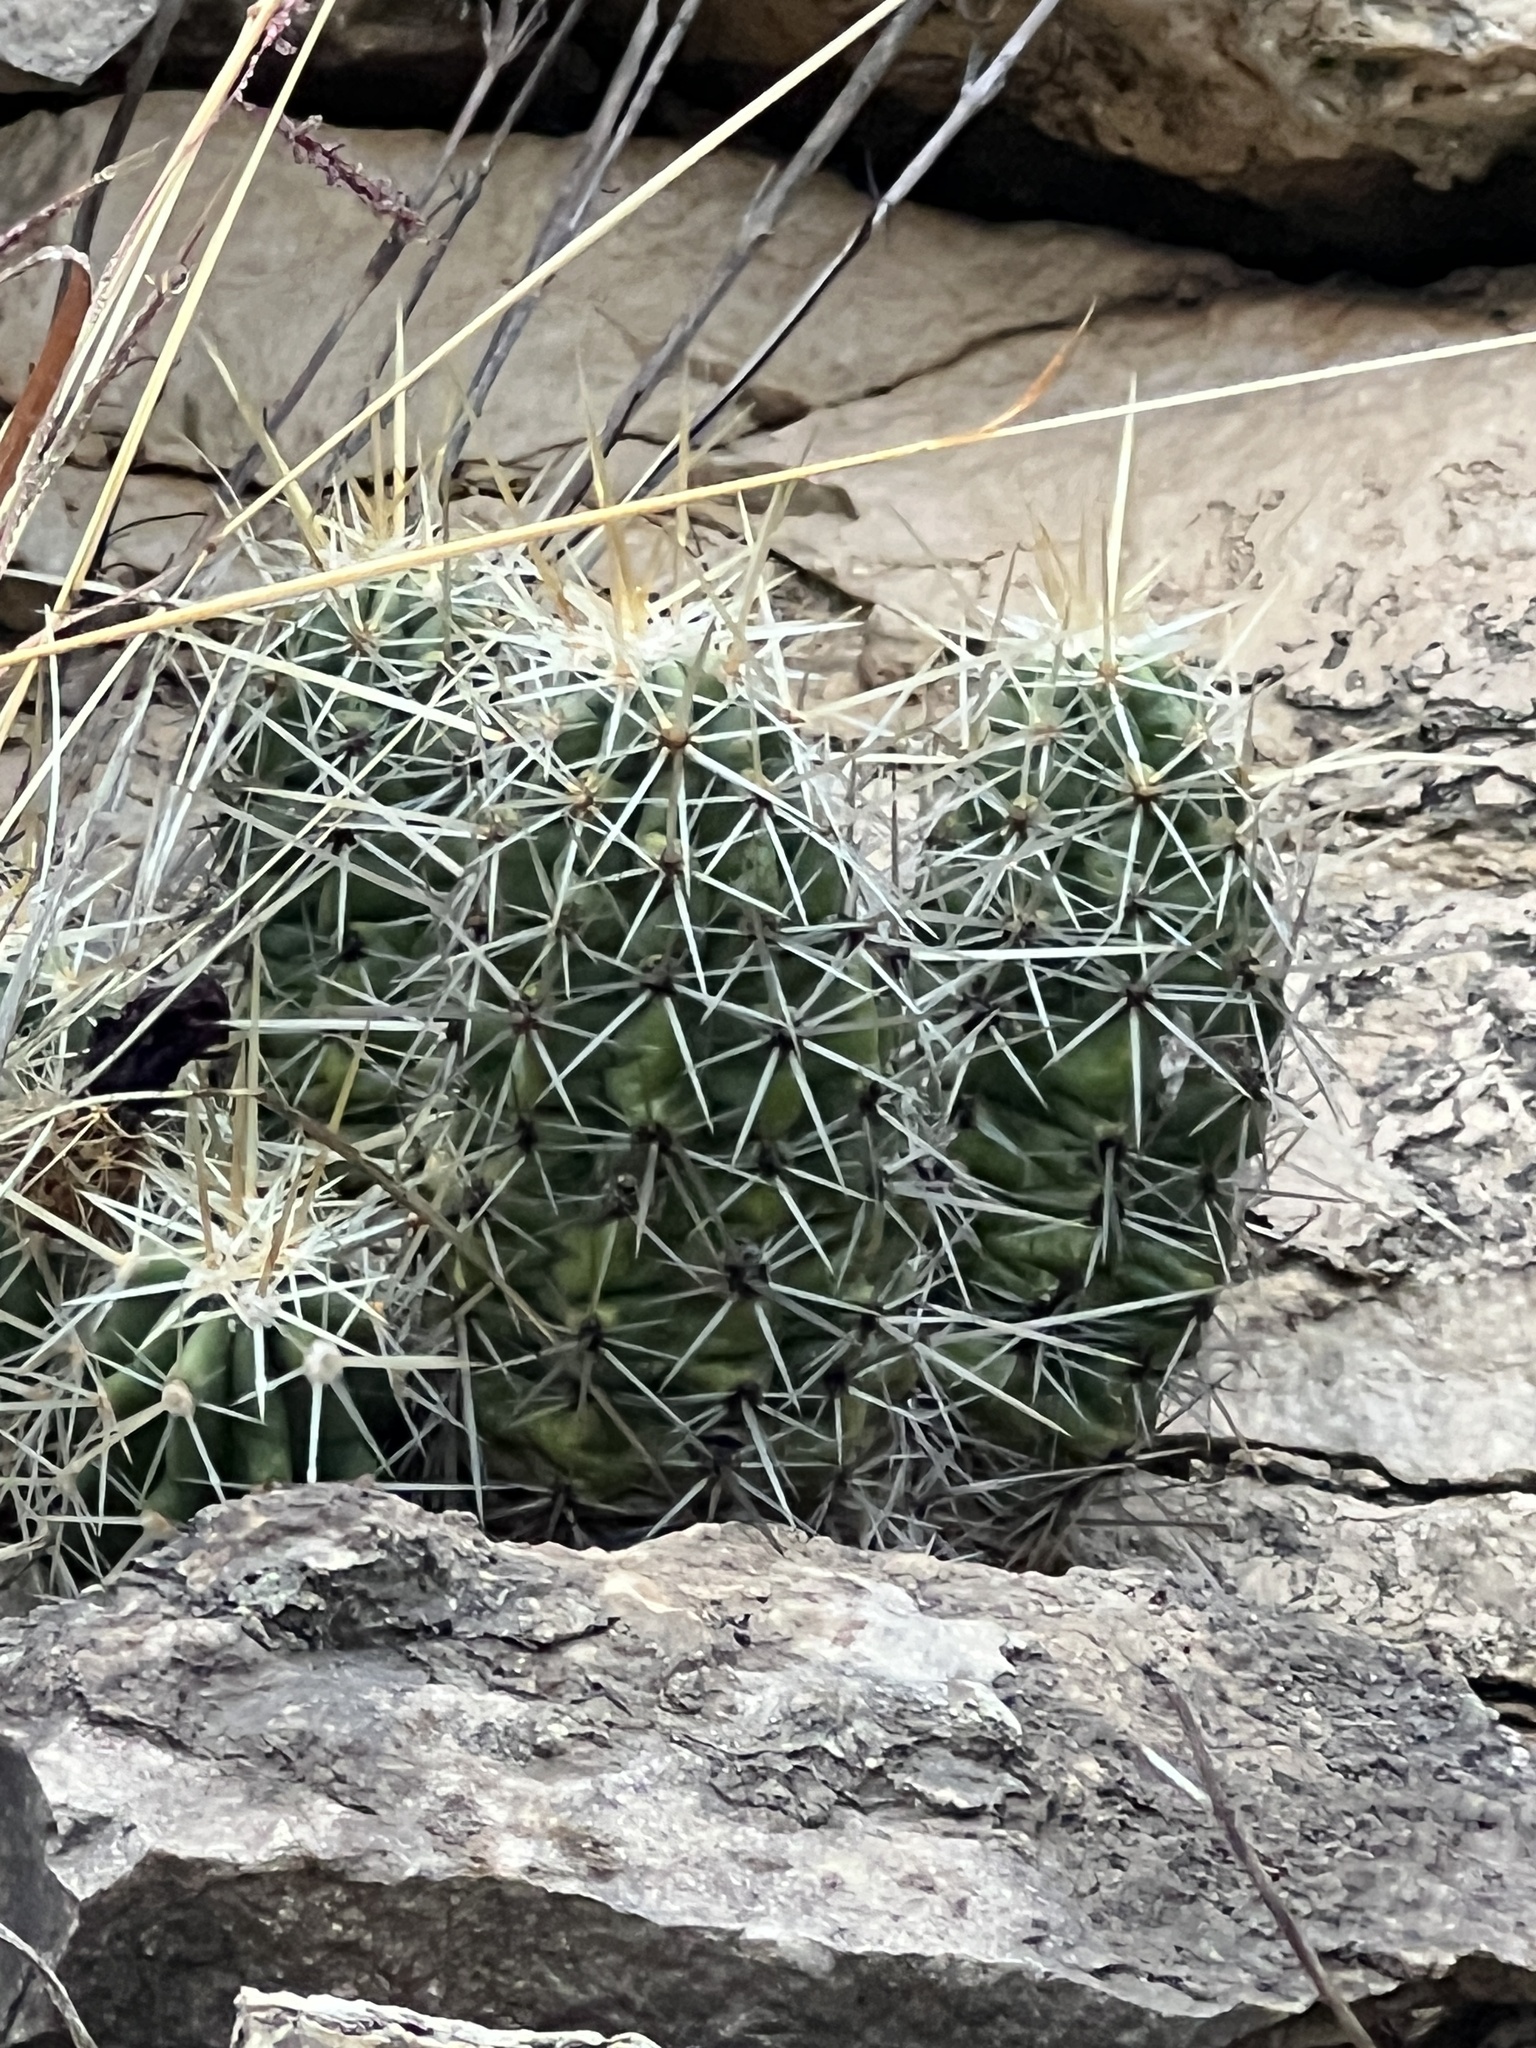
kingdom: Plantae
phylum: Tracheophyta
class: Magnoliopsida
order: Caryophyllales
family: Cactaceae
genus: Echinocereus
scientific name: Echinocereus enneacanthus
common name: Pitaya
